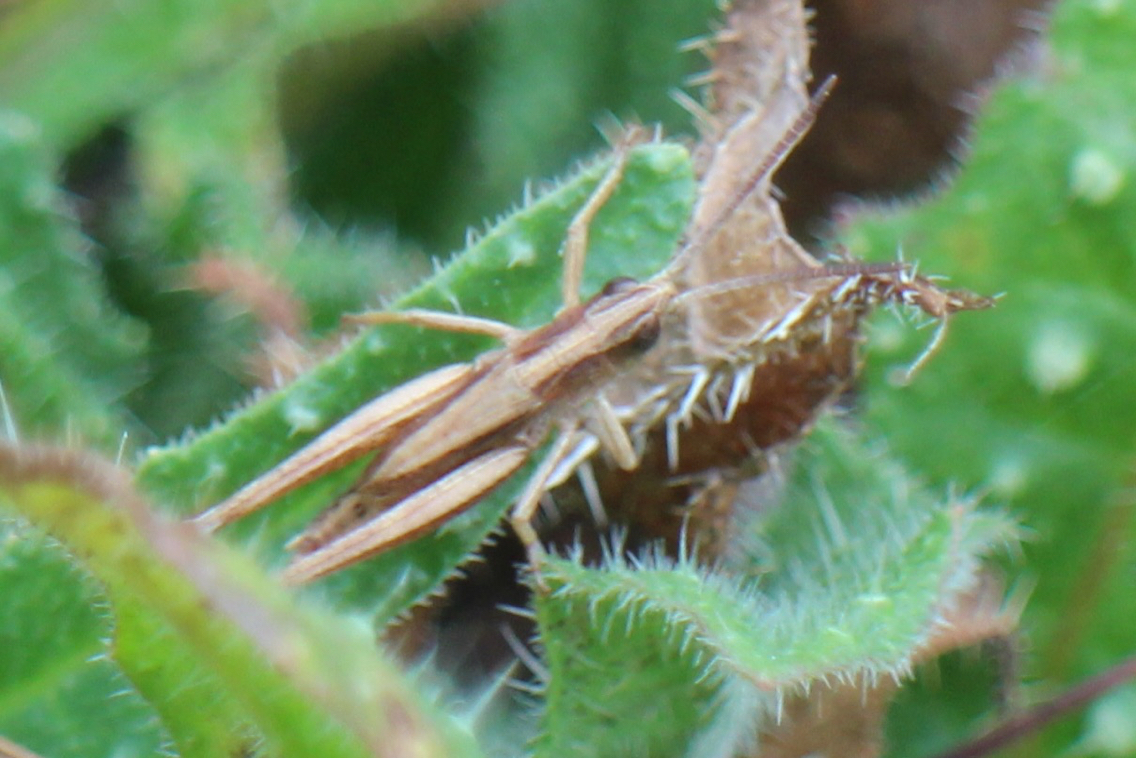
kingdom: Animalia
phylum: Arthropoda
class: Insecta
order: Orthoptera
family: Acrididae
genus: Pseudochorthippus
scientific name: Pseudochorthippus curtipennis
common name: Marsh meadow grasshopper
